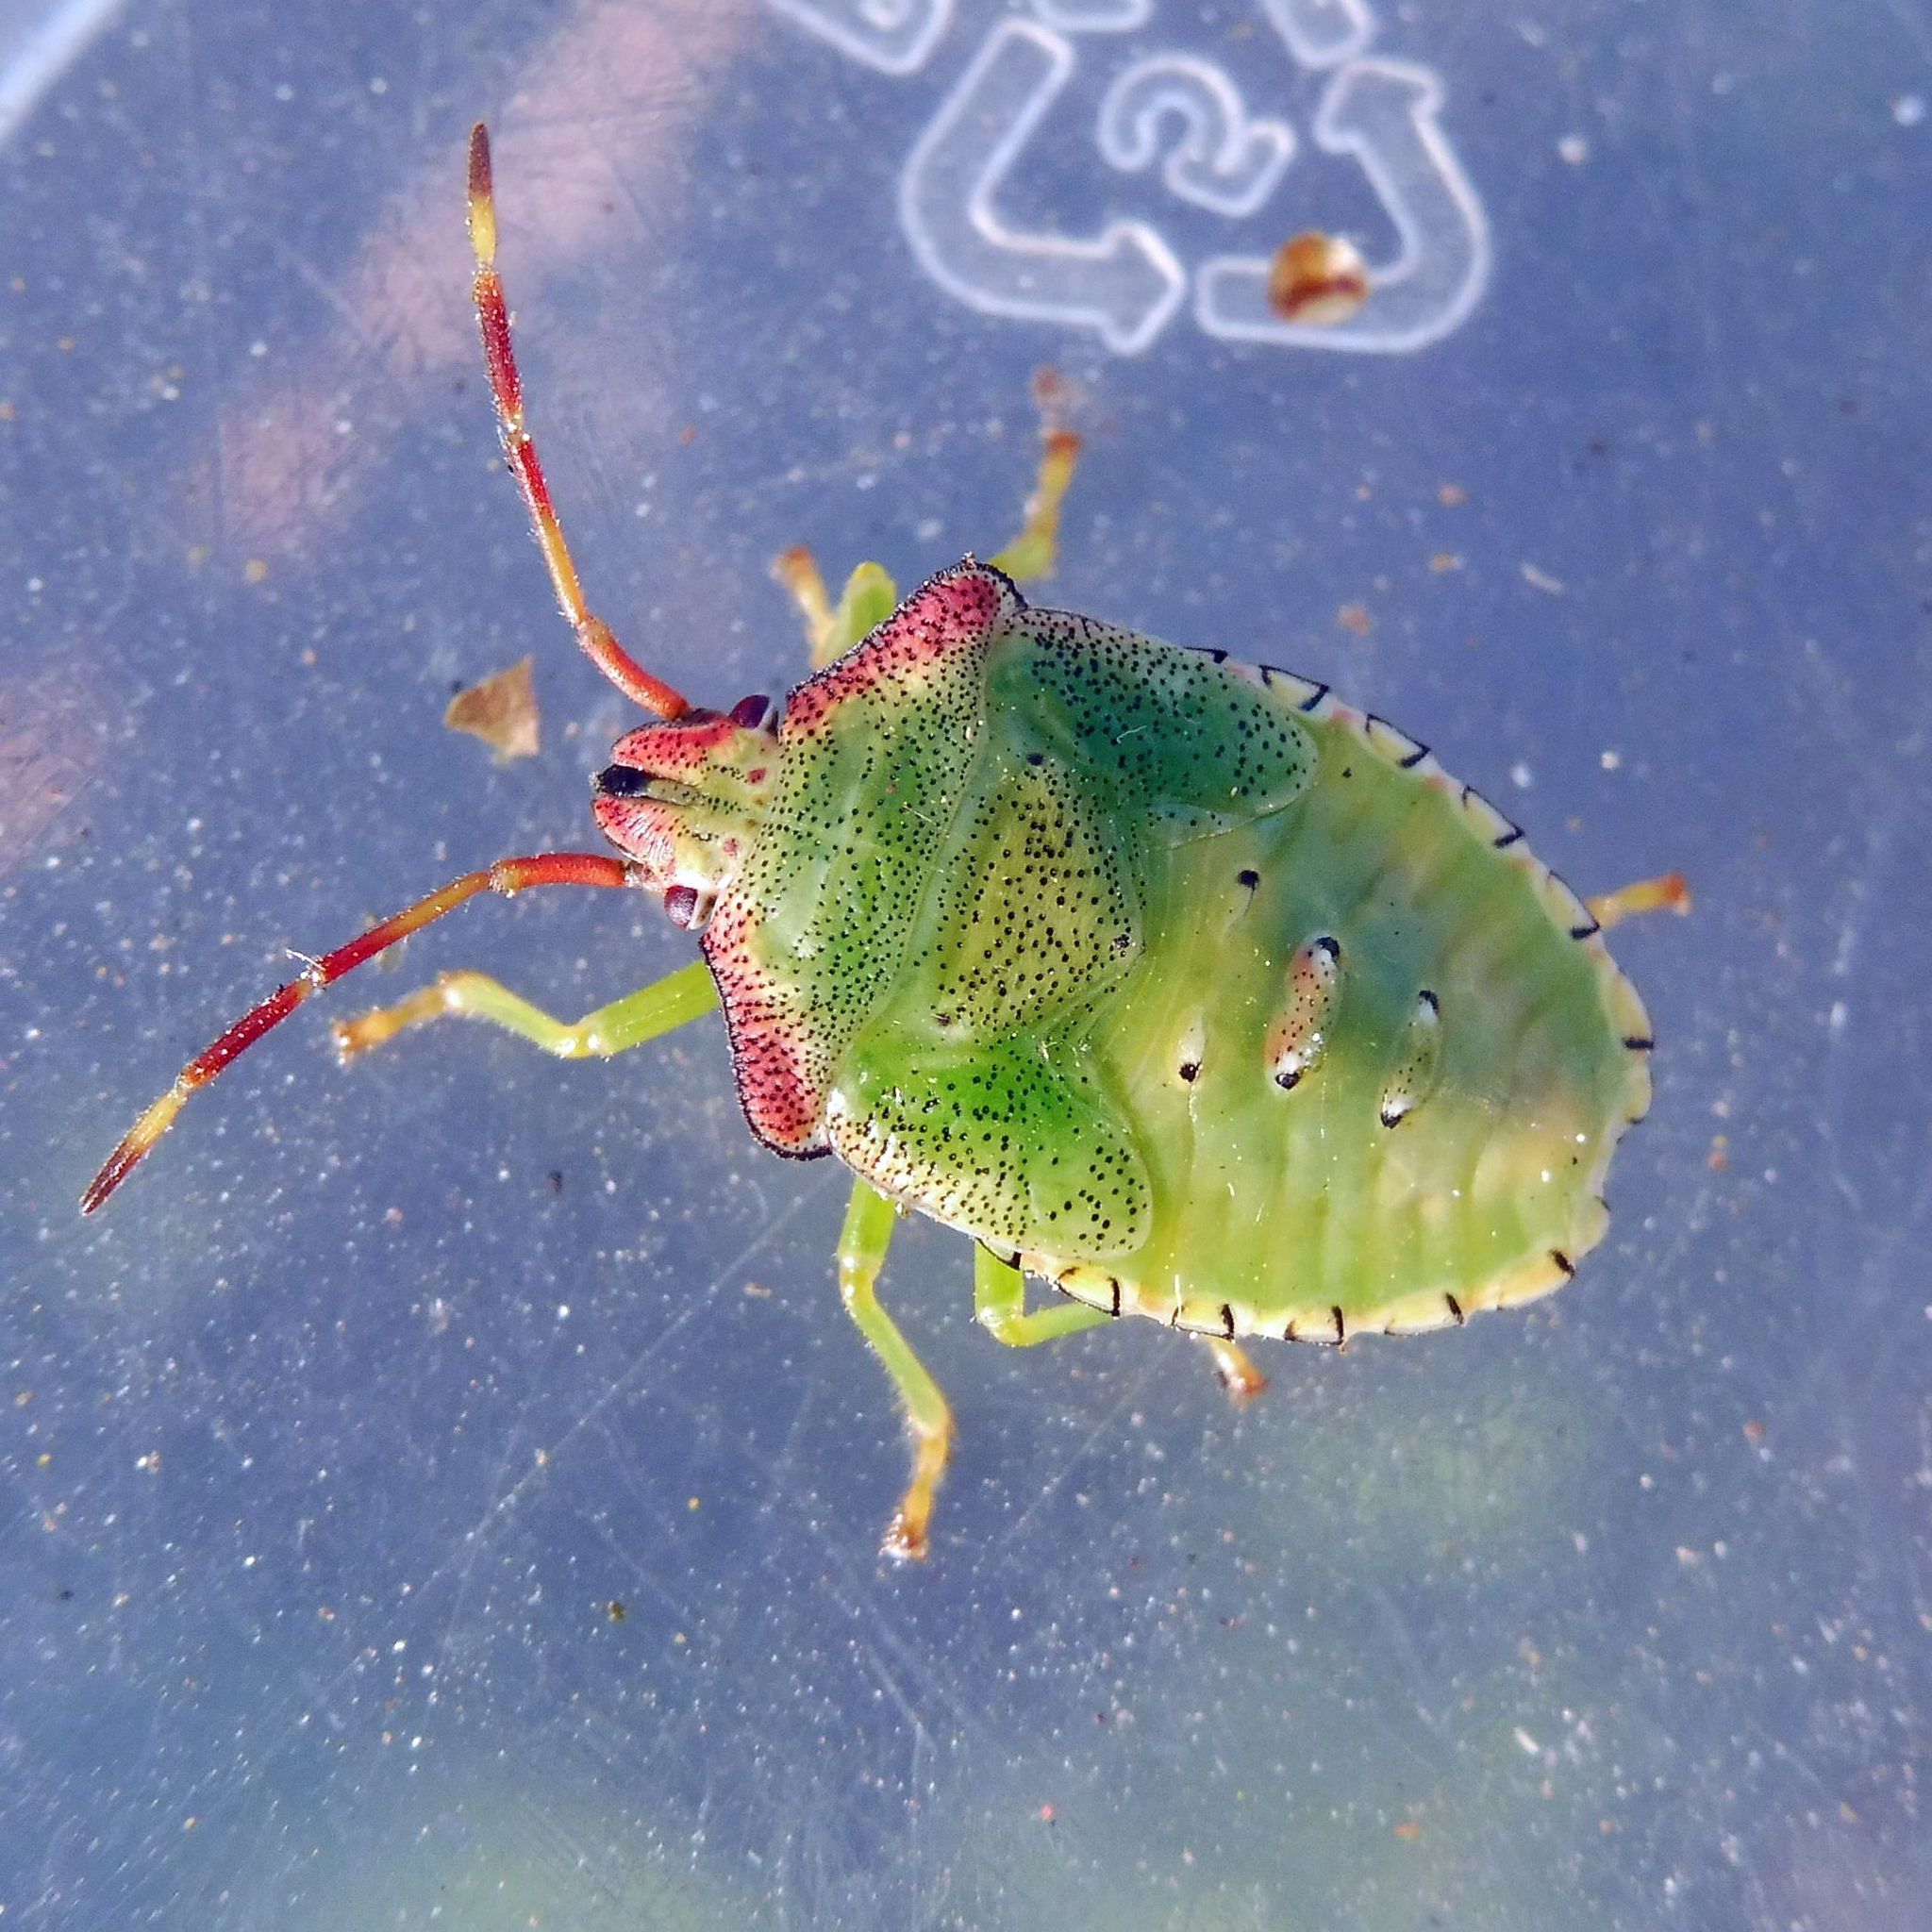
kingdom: Animalia
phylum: Arthropoda
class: Insecta
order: Hemiptera
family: Acanthosomatidae
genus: Acanthosoma
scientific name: Acanthosoma haemorrhoidale
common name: Hawthorn shieldbug
